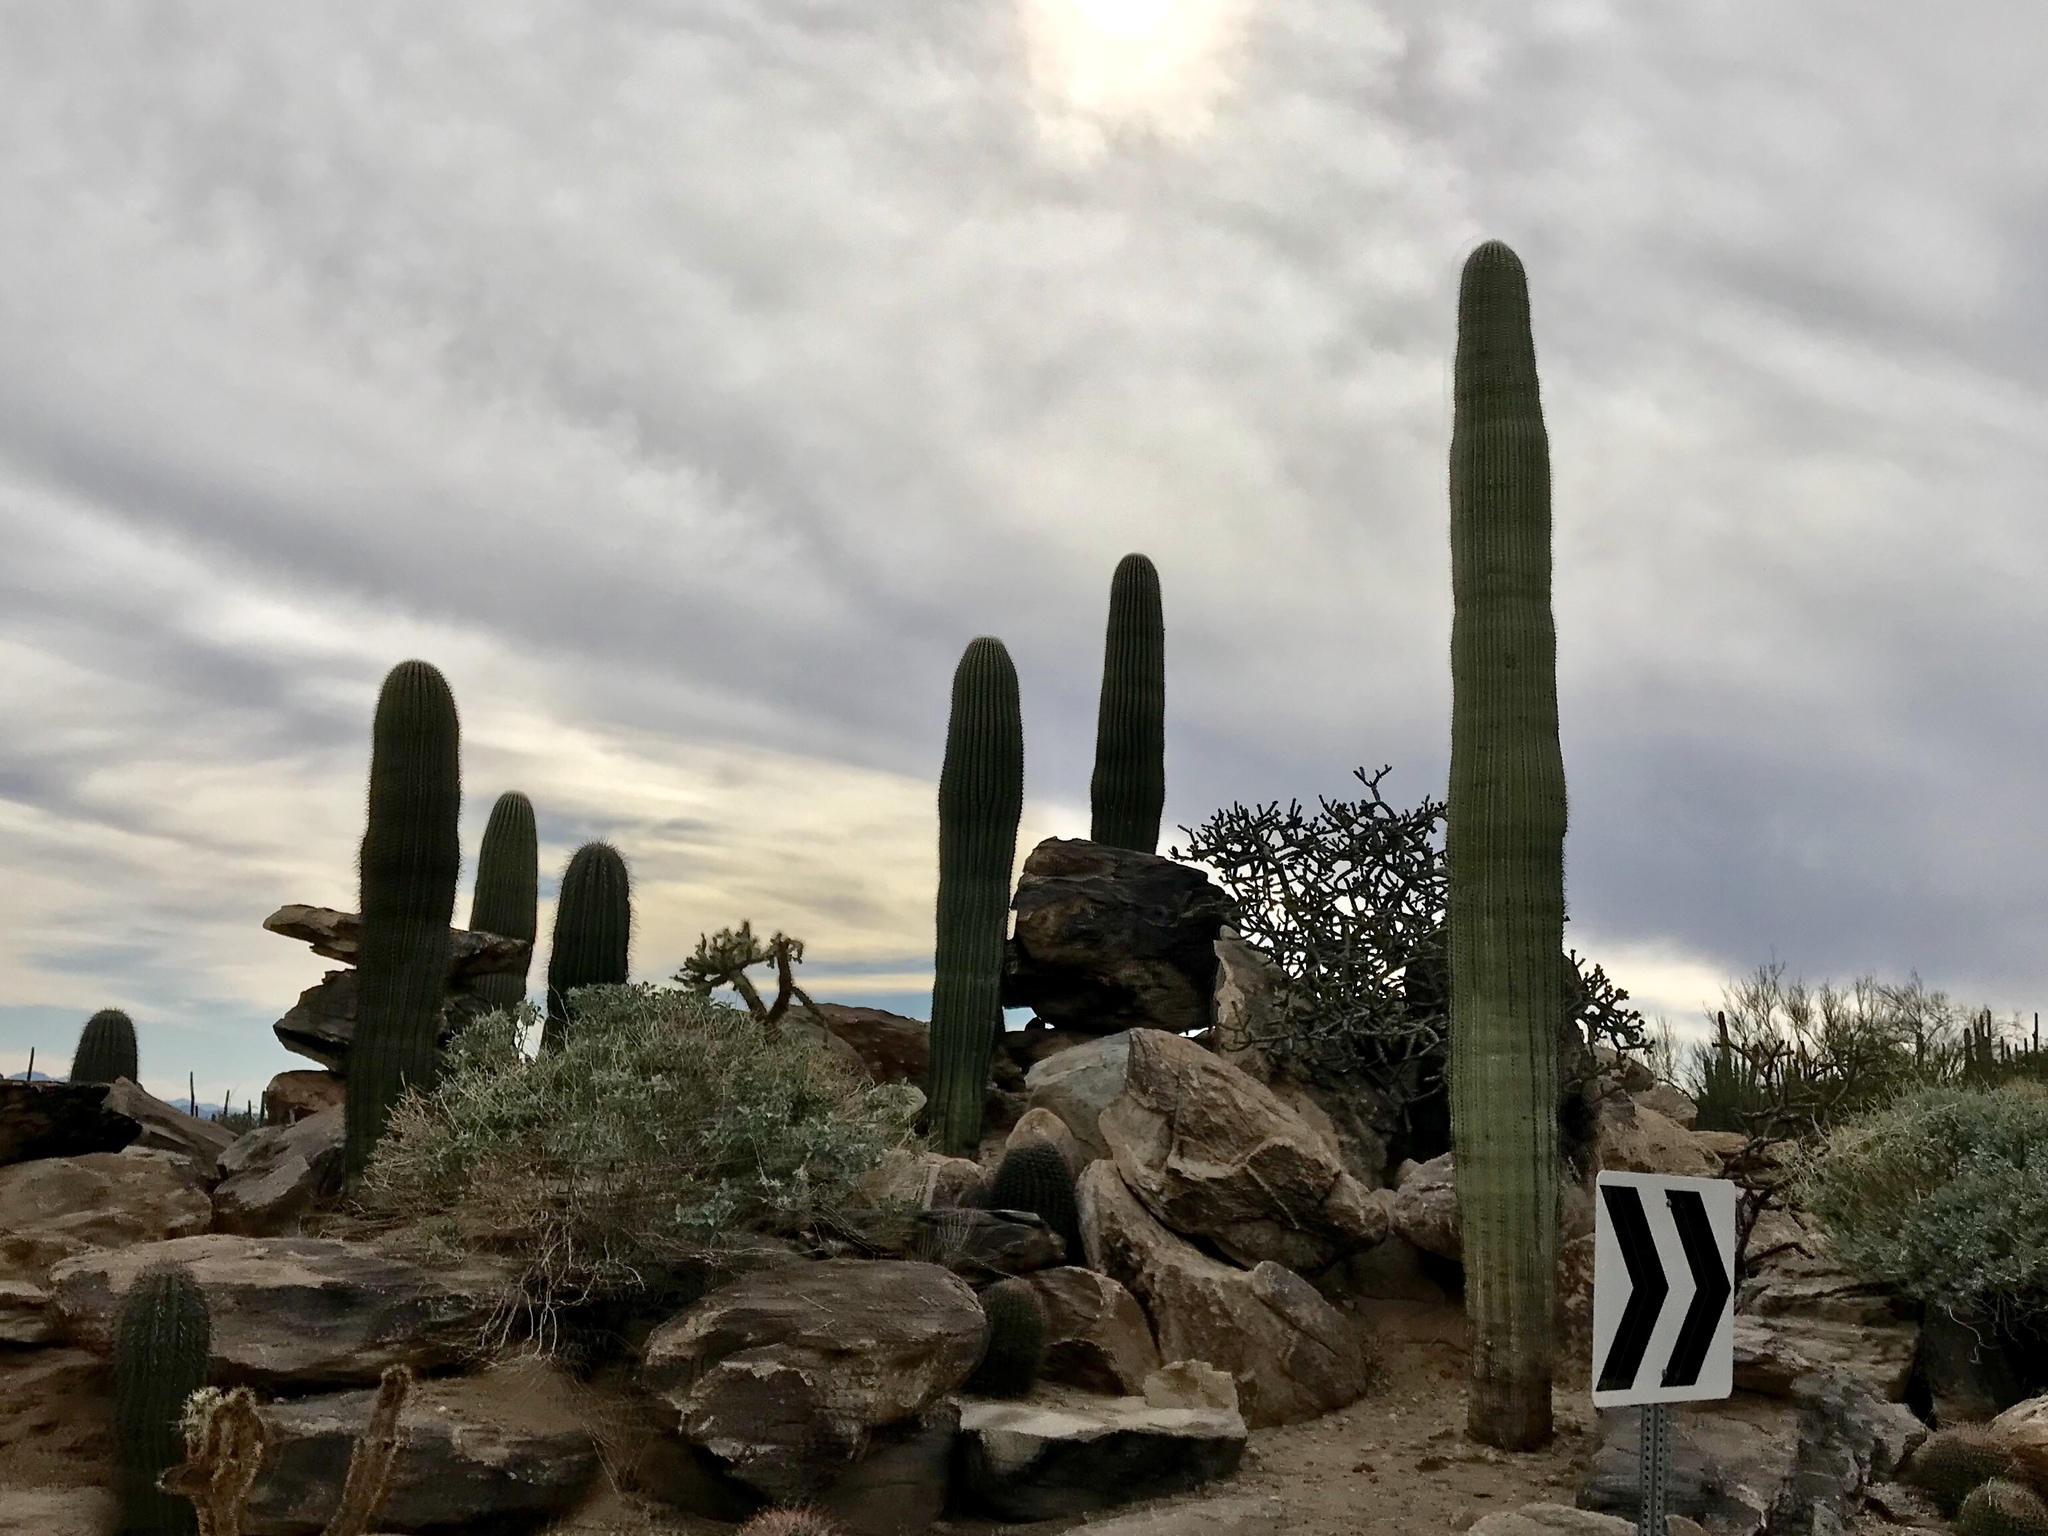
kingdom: Plantae
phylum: Tracheophyta
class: Magnoliopsida
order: Caryophyllales
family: Cactaceae
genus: Carnegiea
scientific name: Carnegiea gigantea
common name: Saguaro
